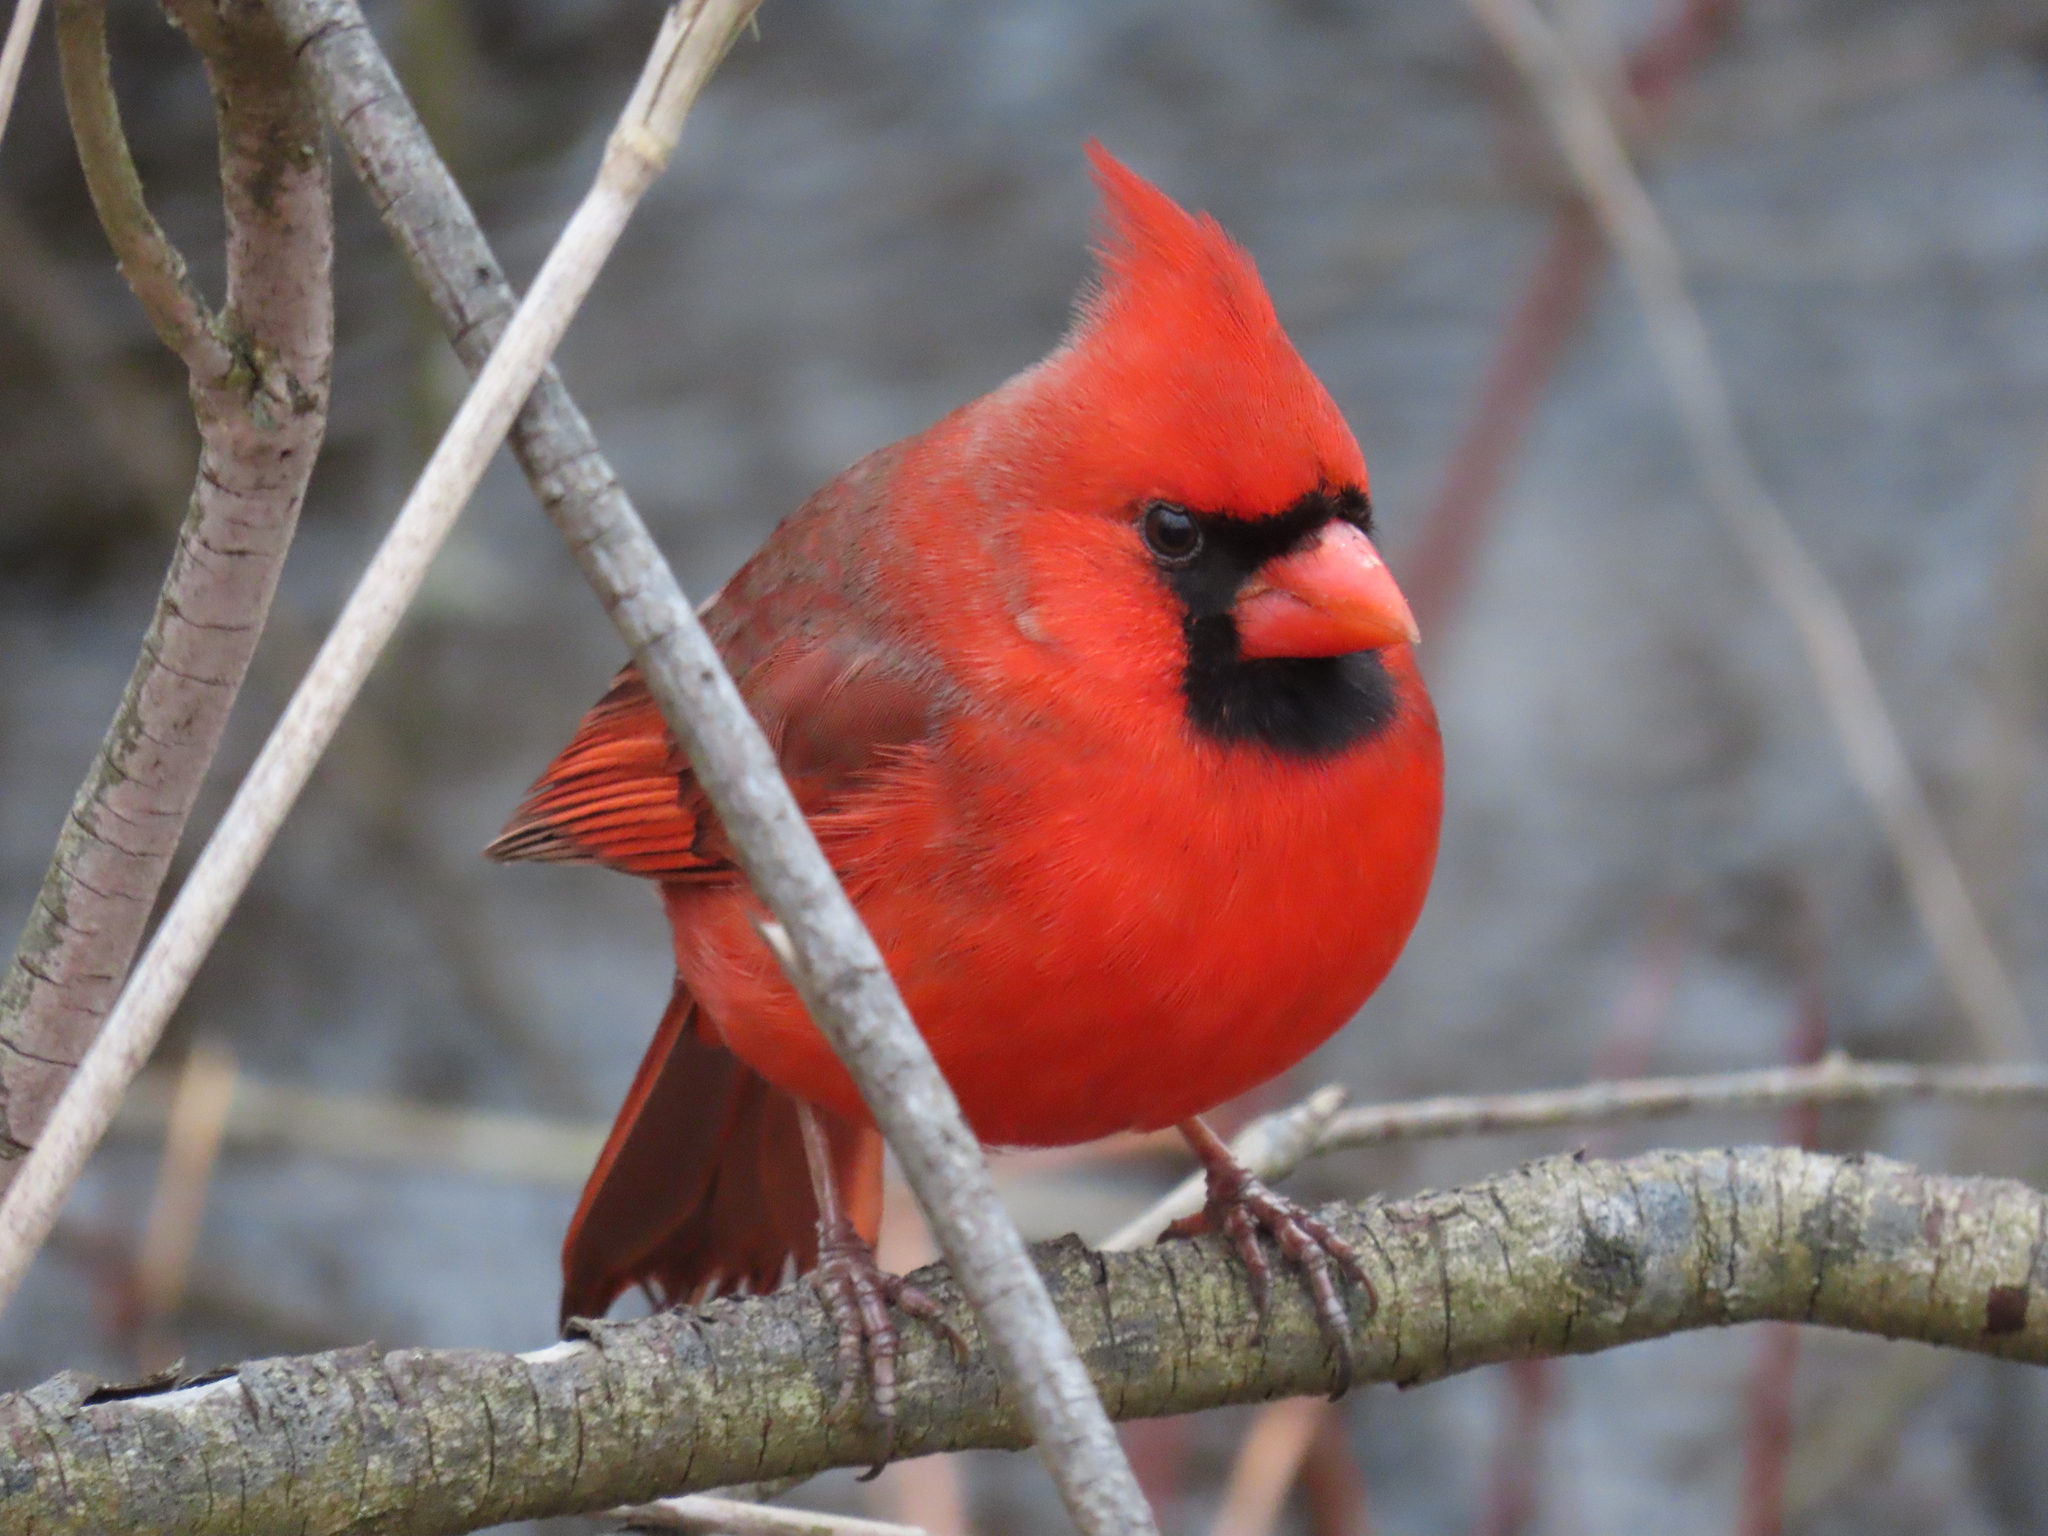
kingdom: Animalia
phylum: Chordata
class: Aves
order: Passeriformes
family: Cardinalidae
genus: Cardinalis
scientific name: Cardinalis cardinalis
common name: Northern cardinal
